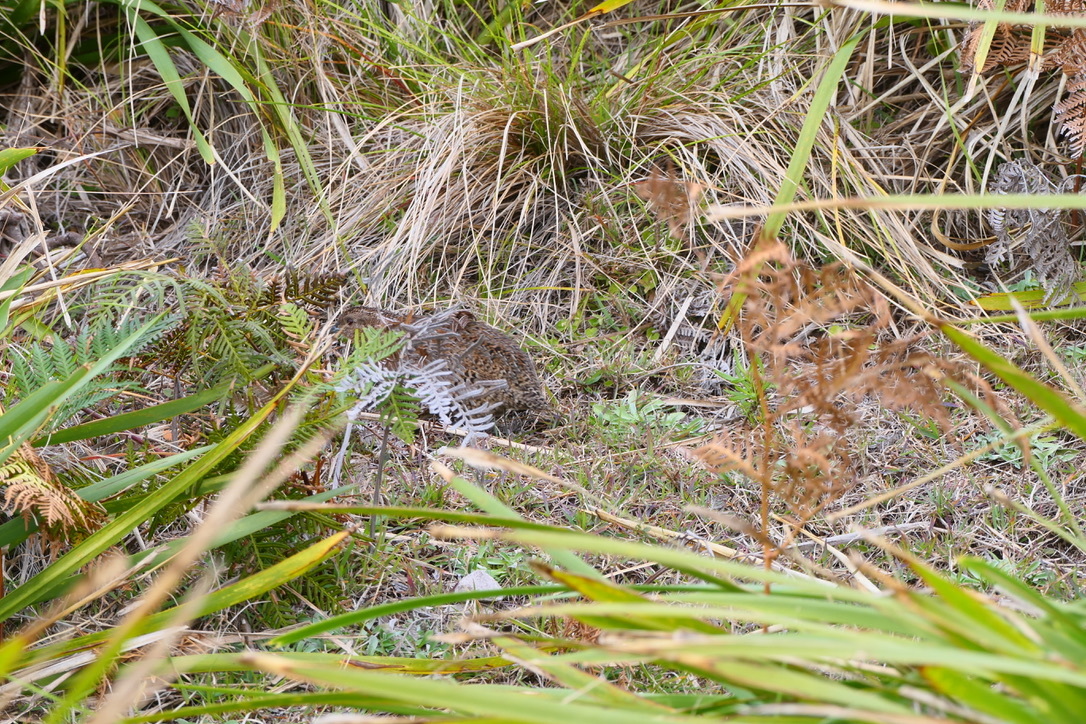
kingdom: Animalia
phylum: Chordata
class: Aves
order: Galliformes
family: Phasianidae
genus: Synoicus
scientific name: Synoicus ypsilophorus
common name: Brown quail
